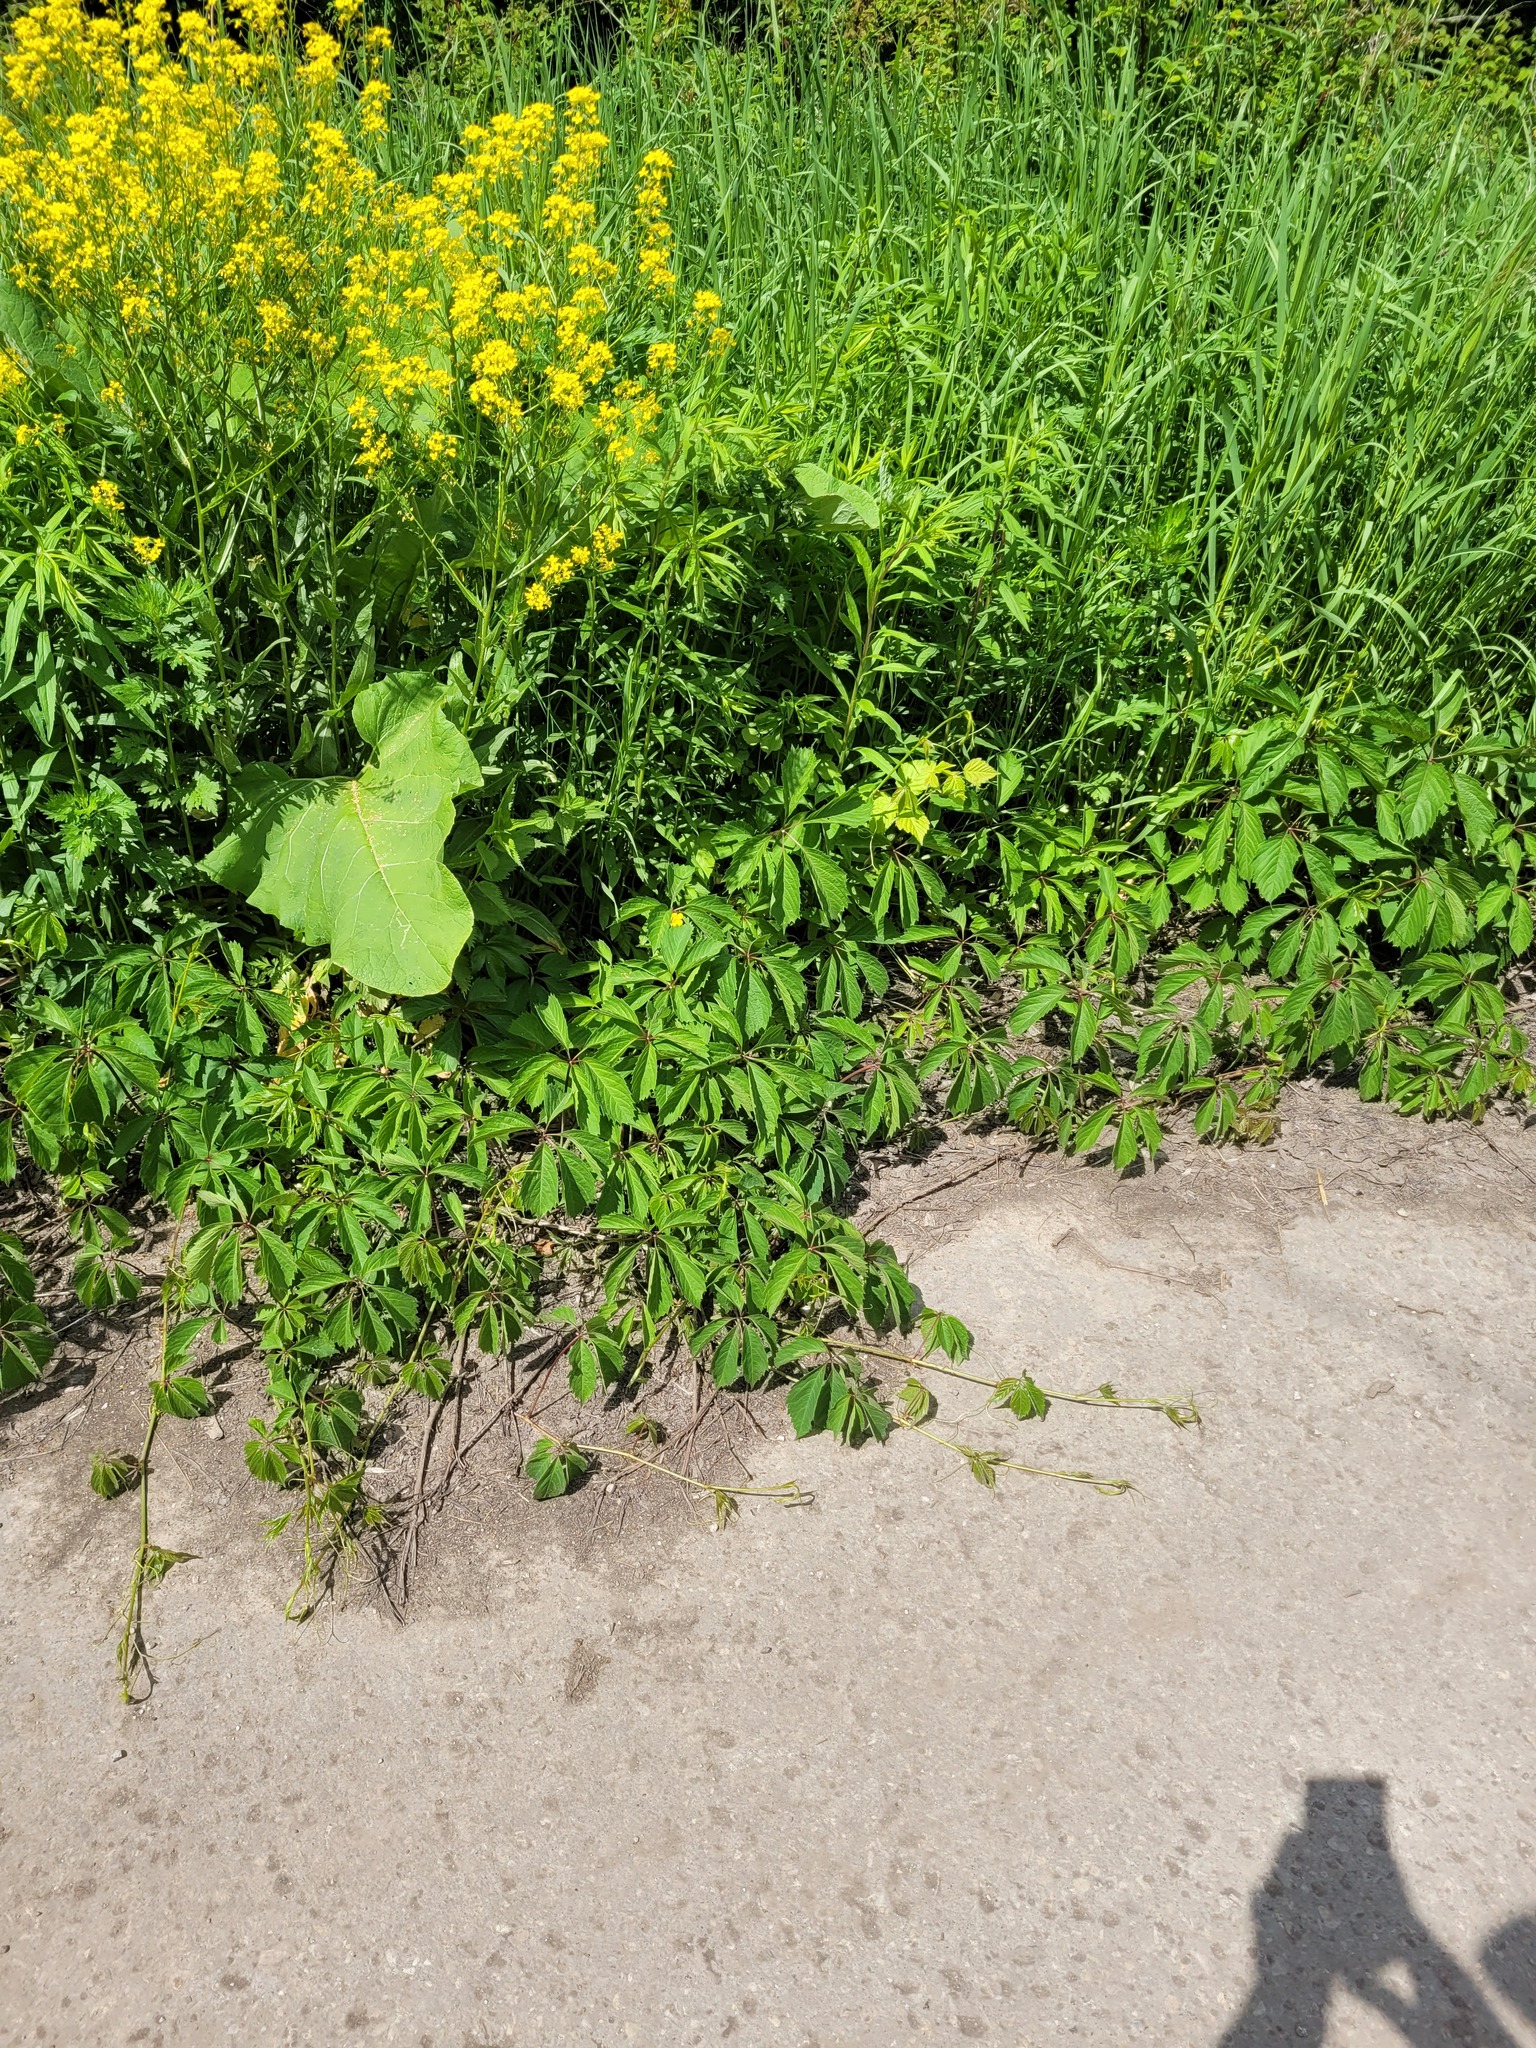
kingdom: Plantae
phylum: Tracheophyta
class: Magnoliopsida
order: Vitales
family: Vitaceae
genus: Parthenocissus
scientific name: Parthenocissus inserta
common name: False virginia-creeper
